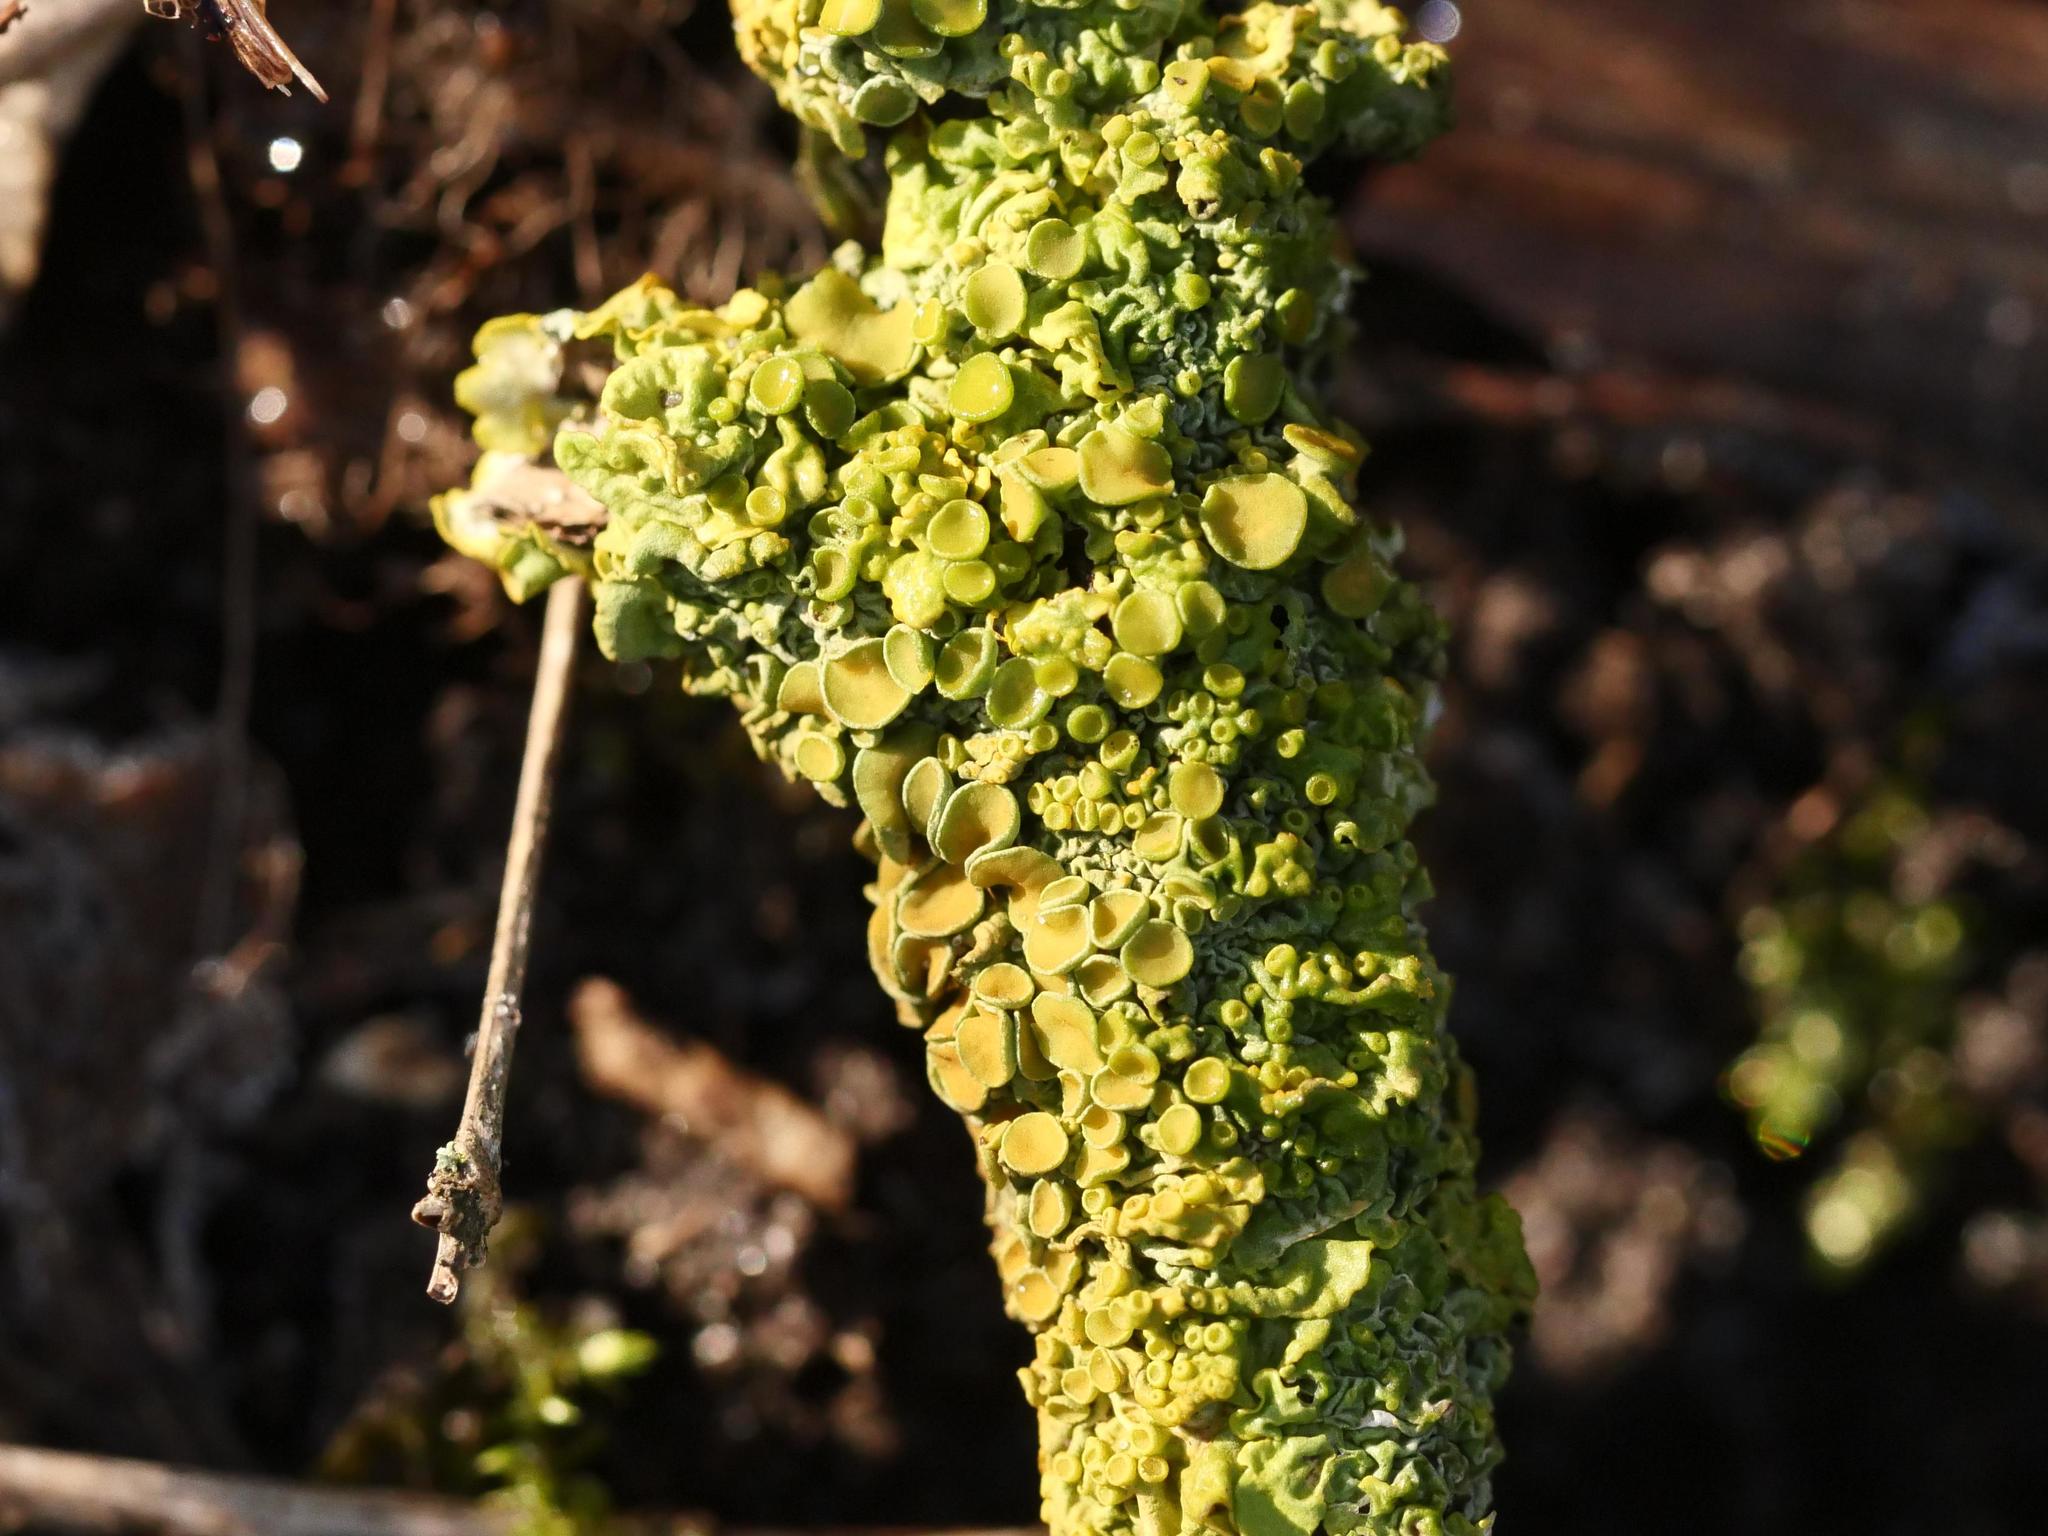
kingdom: Fungi
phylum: Ascomycota
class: Lecanoromycetes
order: Teloschistales
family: Teloschistaceae
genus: Xanthoria
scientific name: Xanthoria parietina
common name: Common orange lichen
